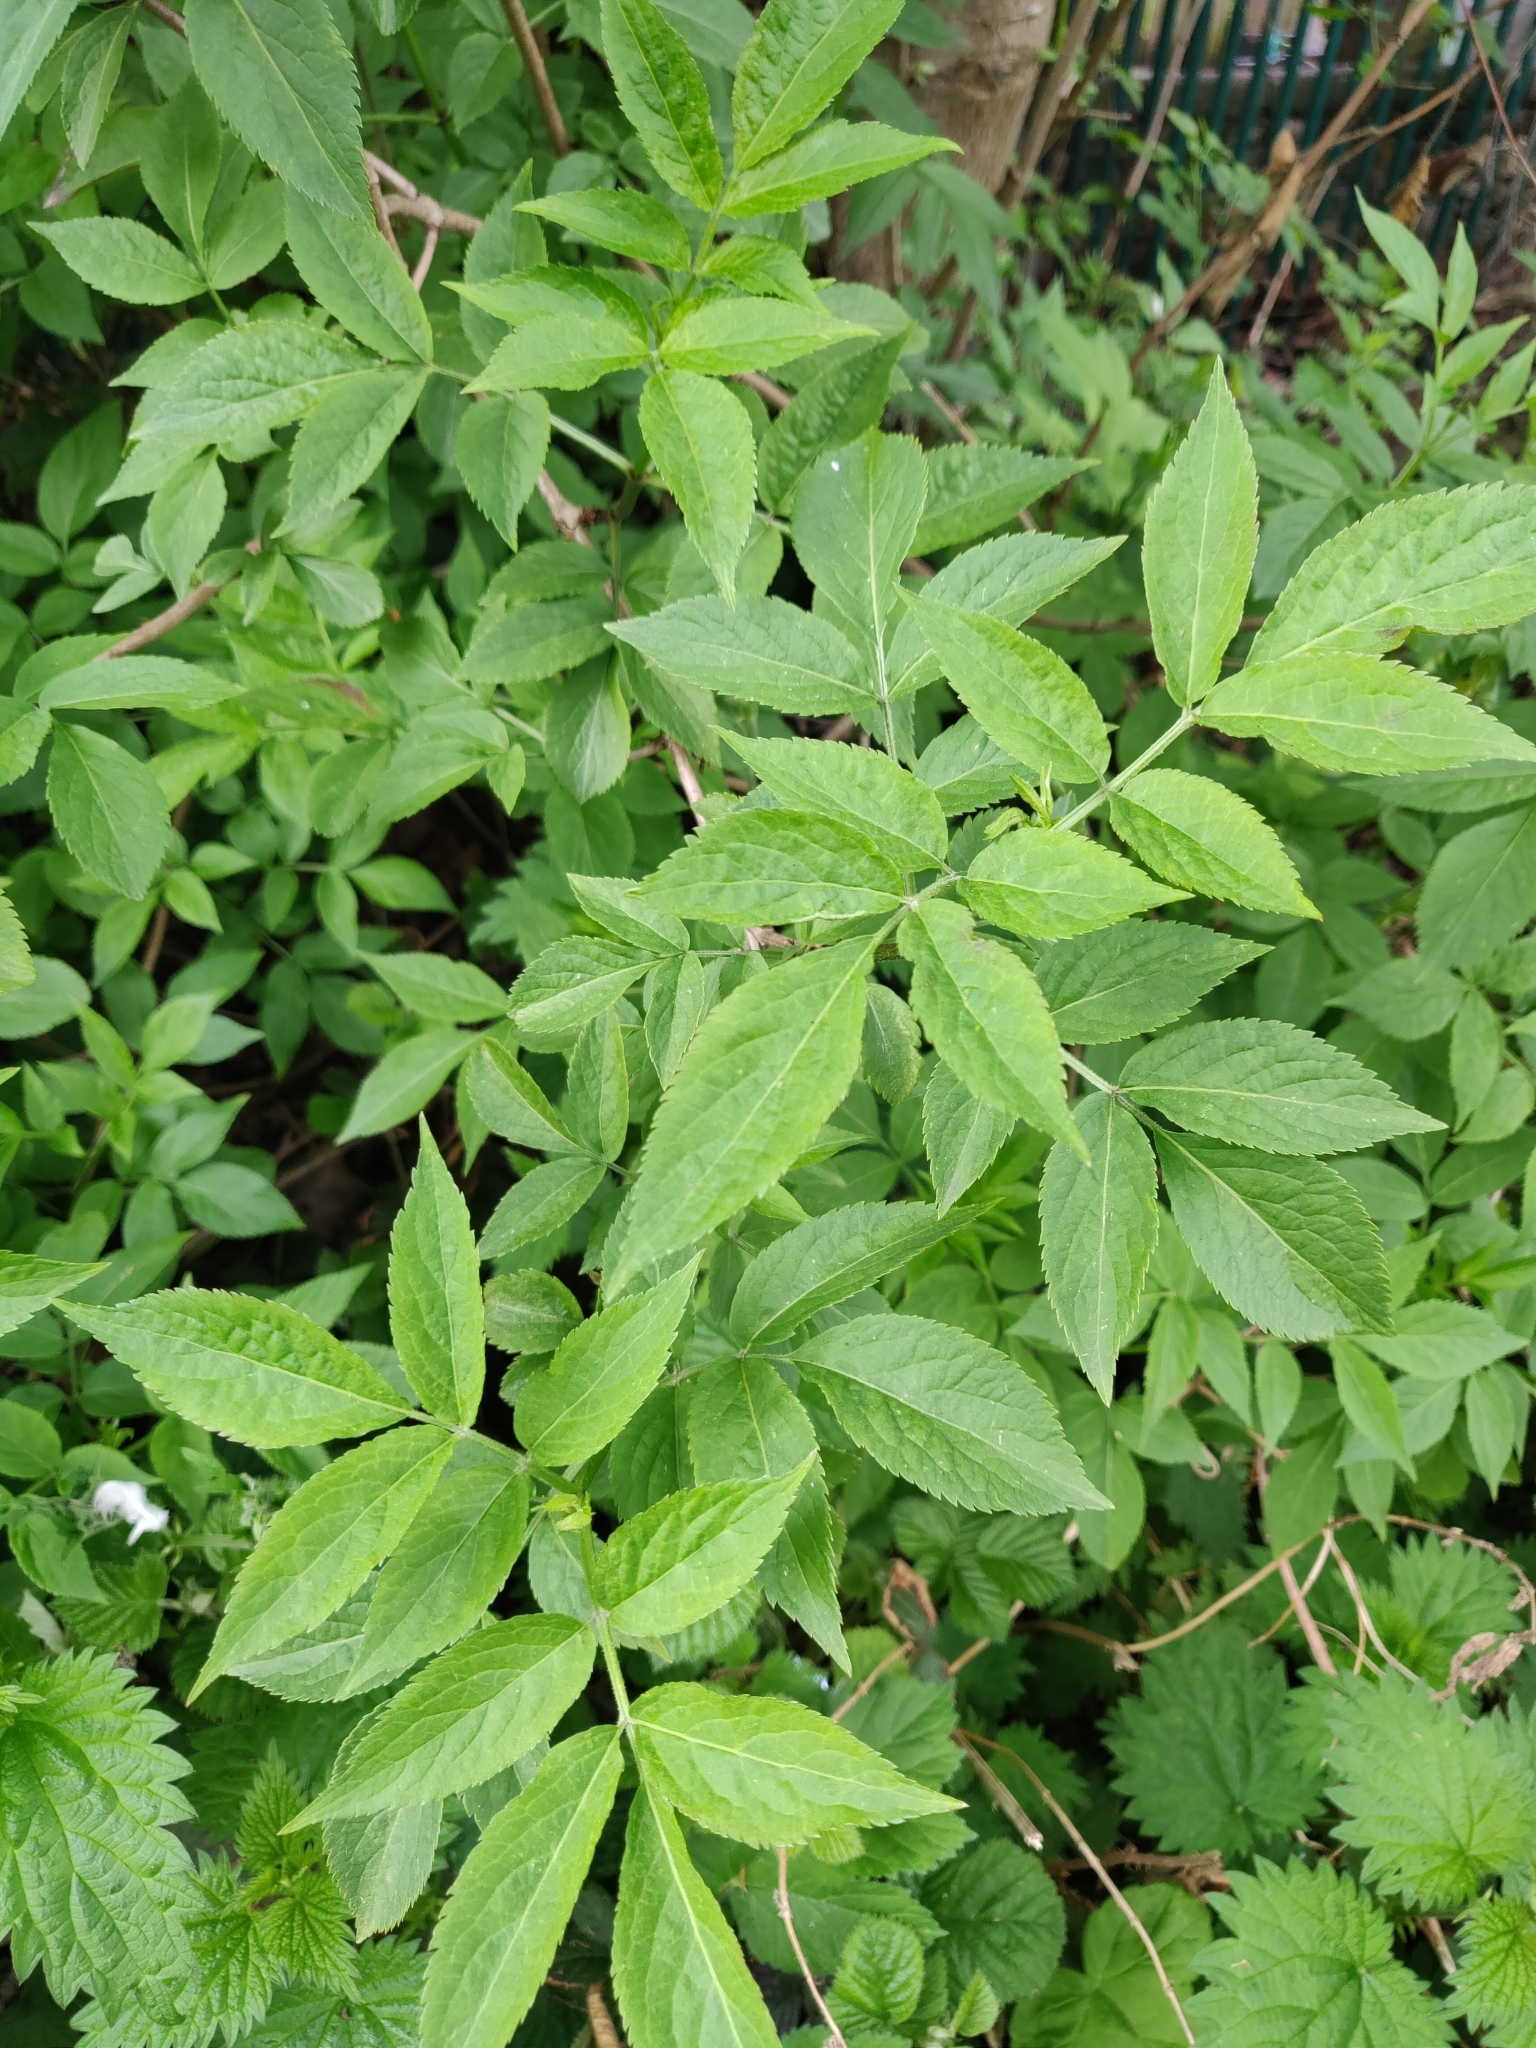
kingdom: Plantae
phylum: Tracheophyta
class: Magnoliopsida
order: Dipsacales
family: Viburnaceae
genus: Sambucus
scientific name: Sambucus nigra
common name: Elder
